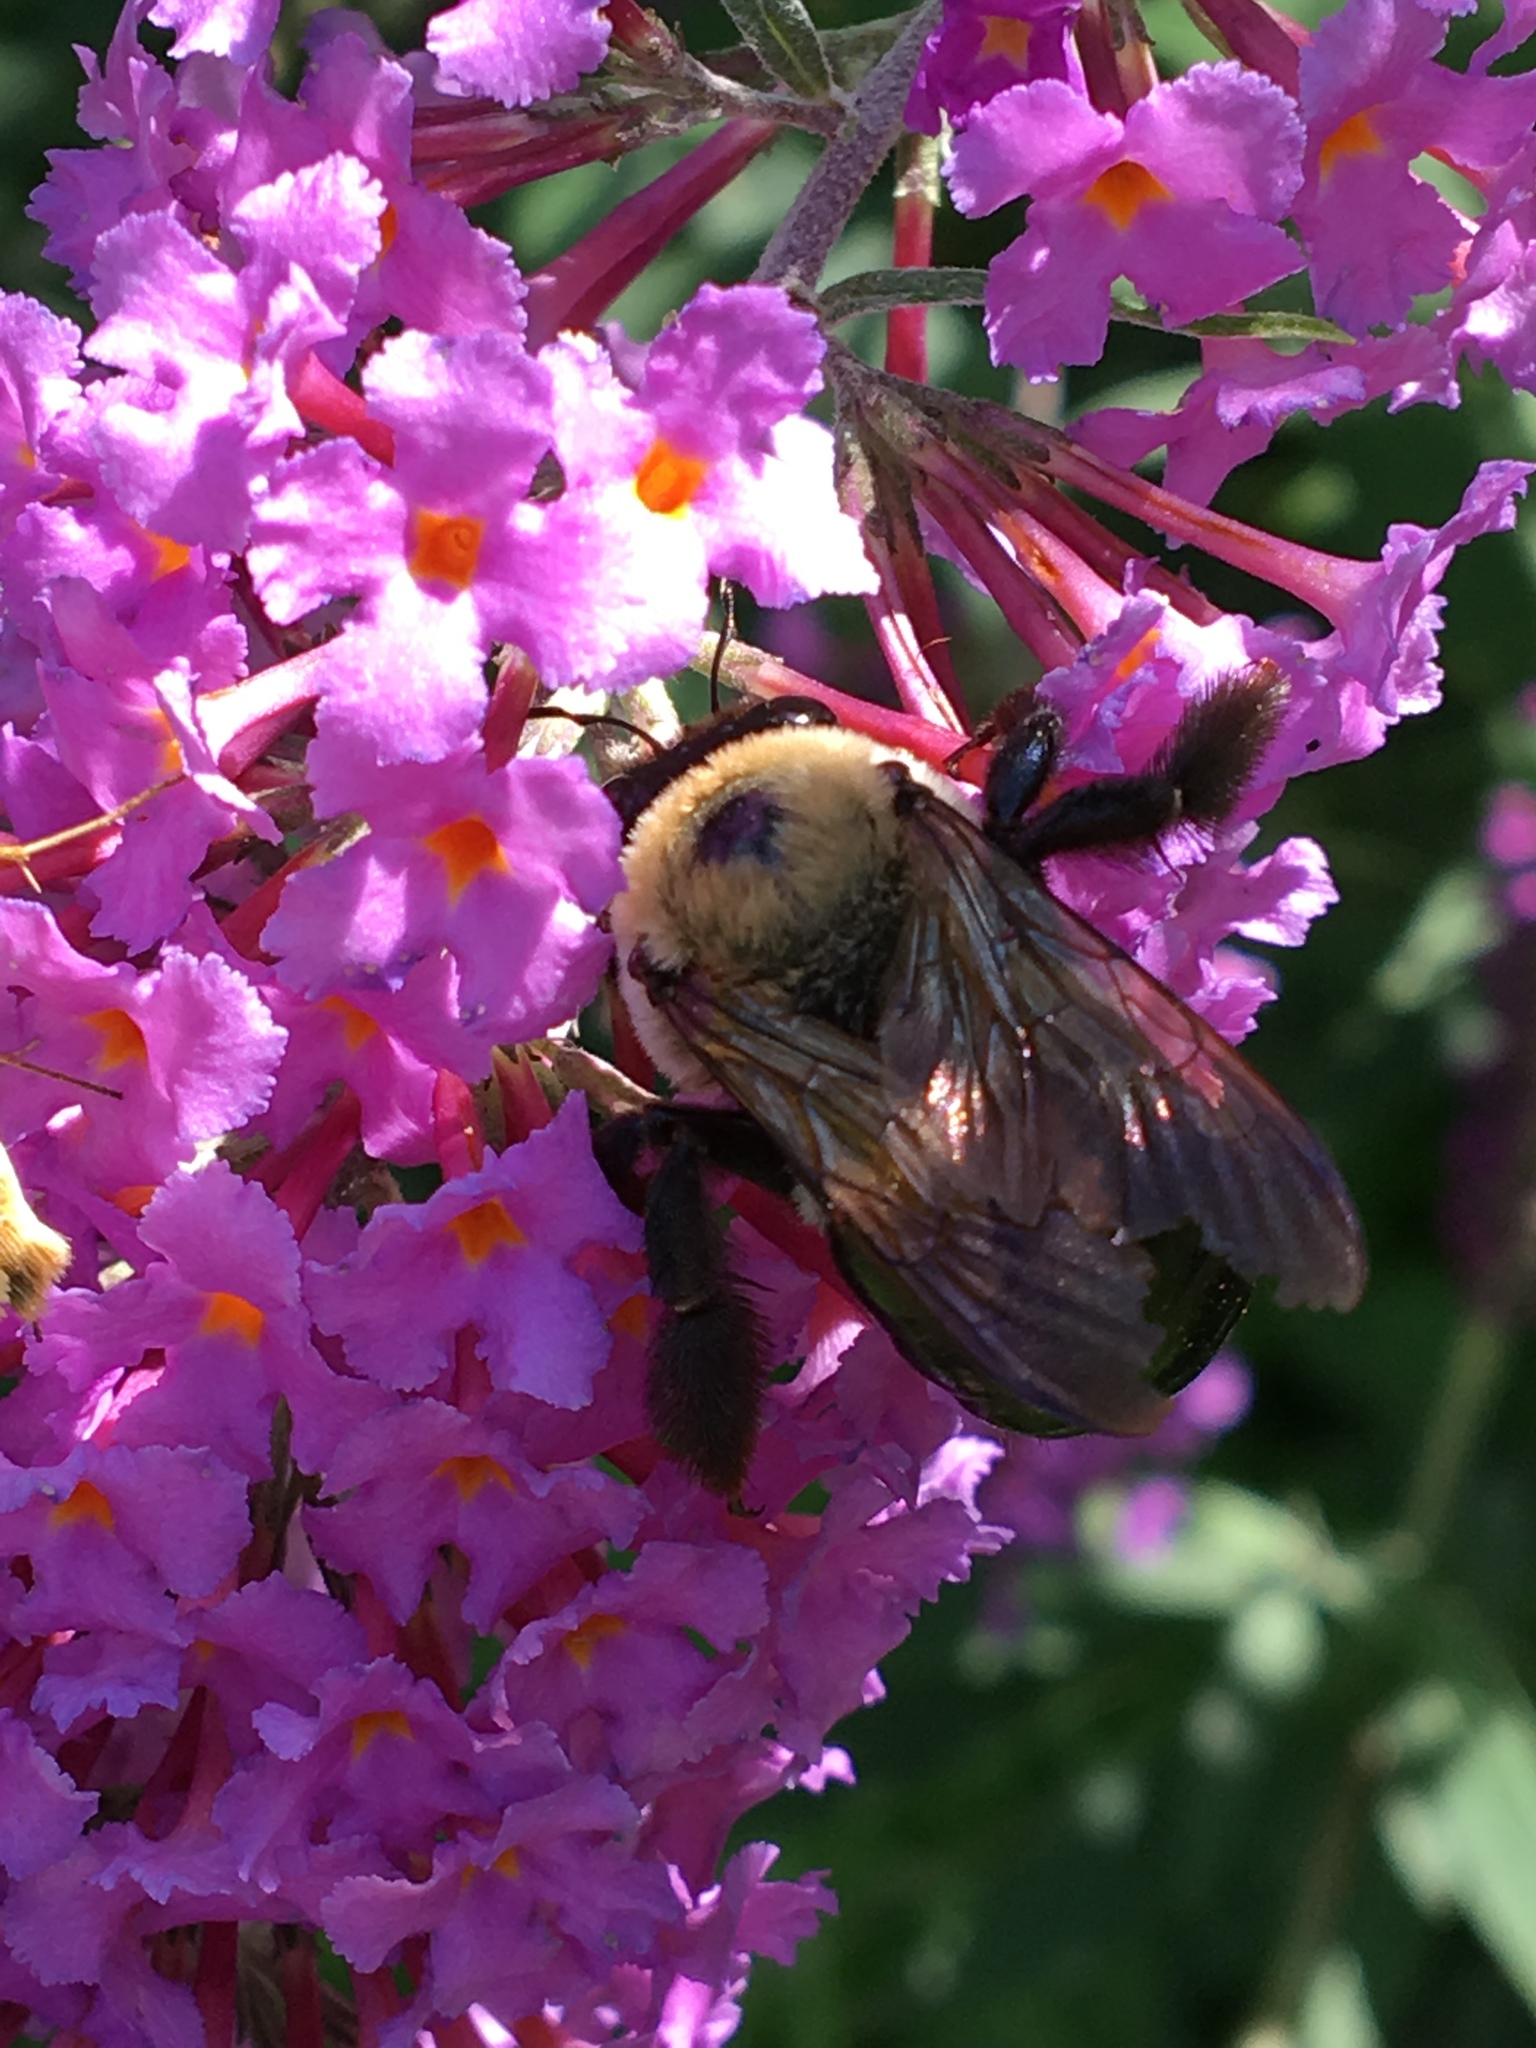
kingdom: Animalia
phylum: Arthropoda
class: Insecta
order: Hymenoptera
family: Apidae
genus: Xylocopa
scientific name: Xylocopa virginica
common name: Carpenter bee
